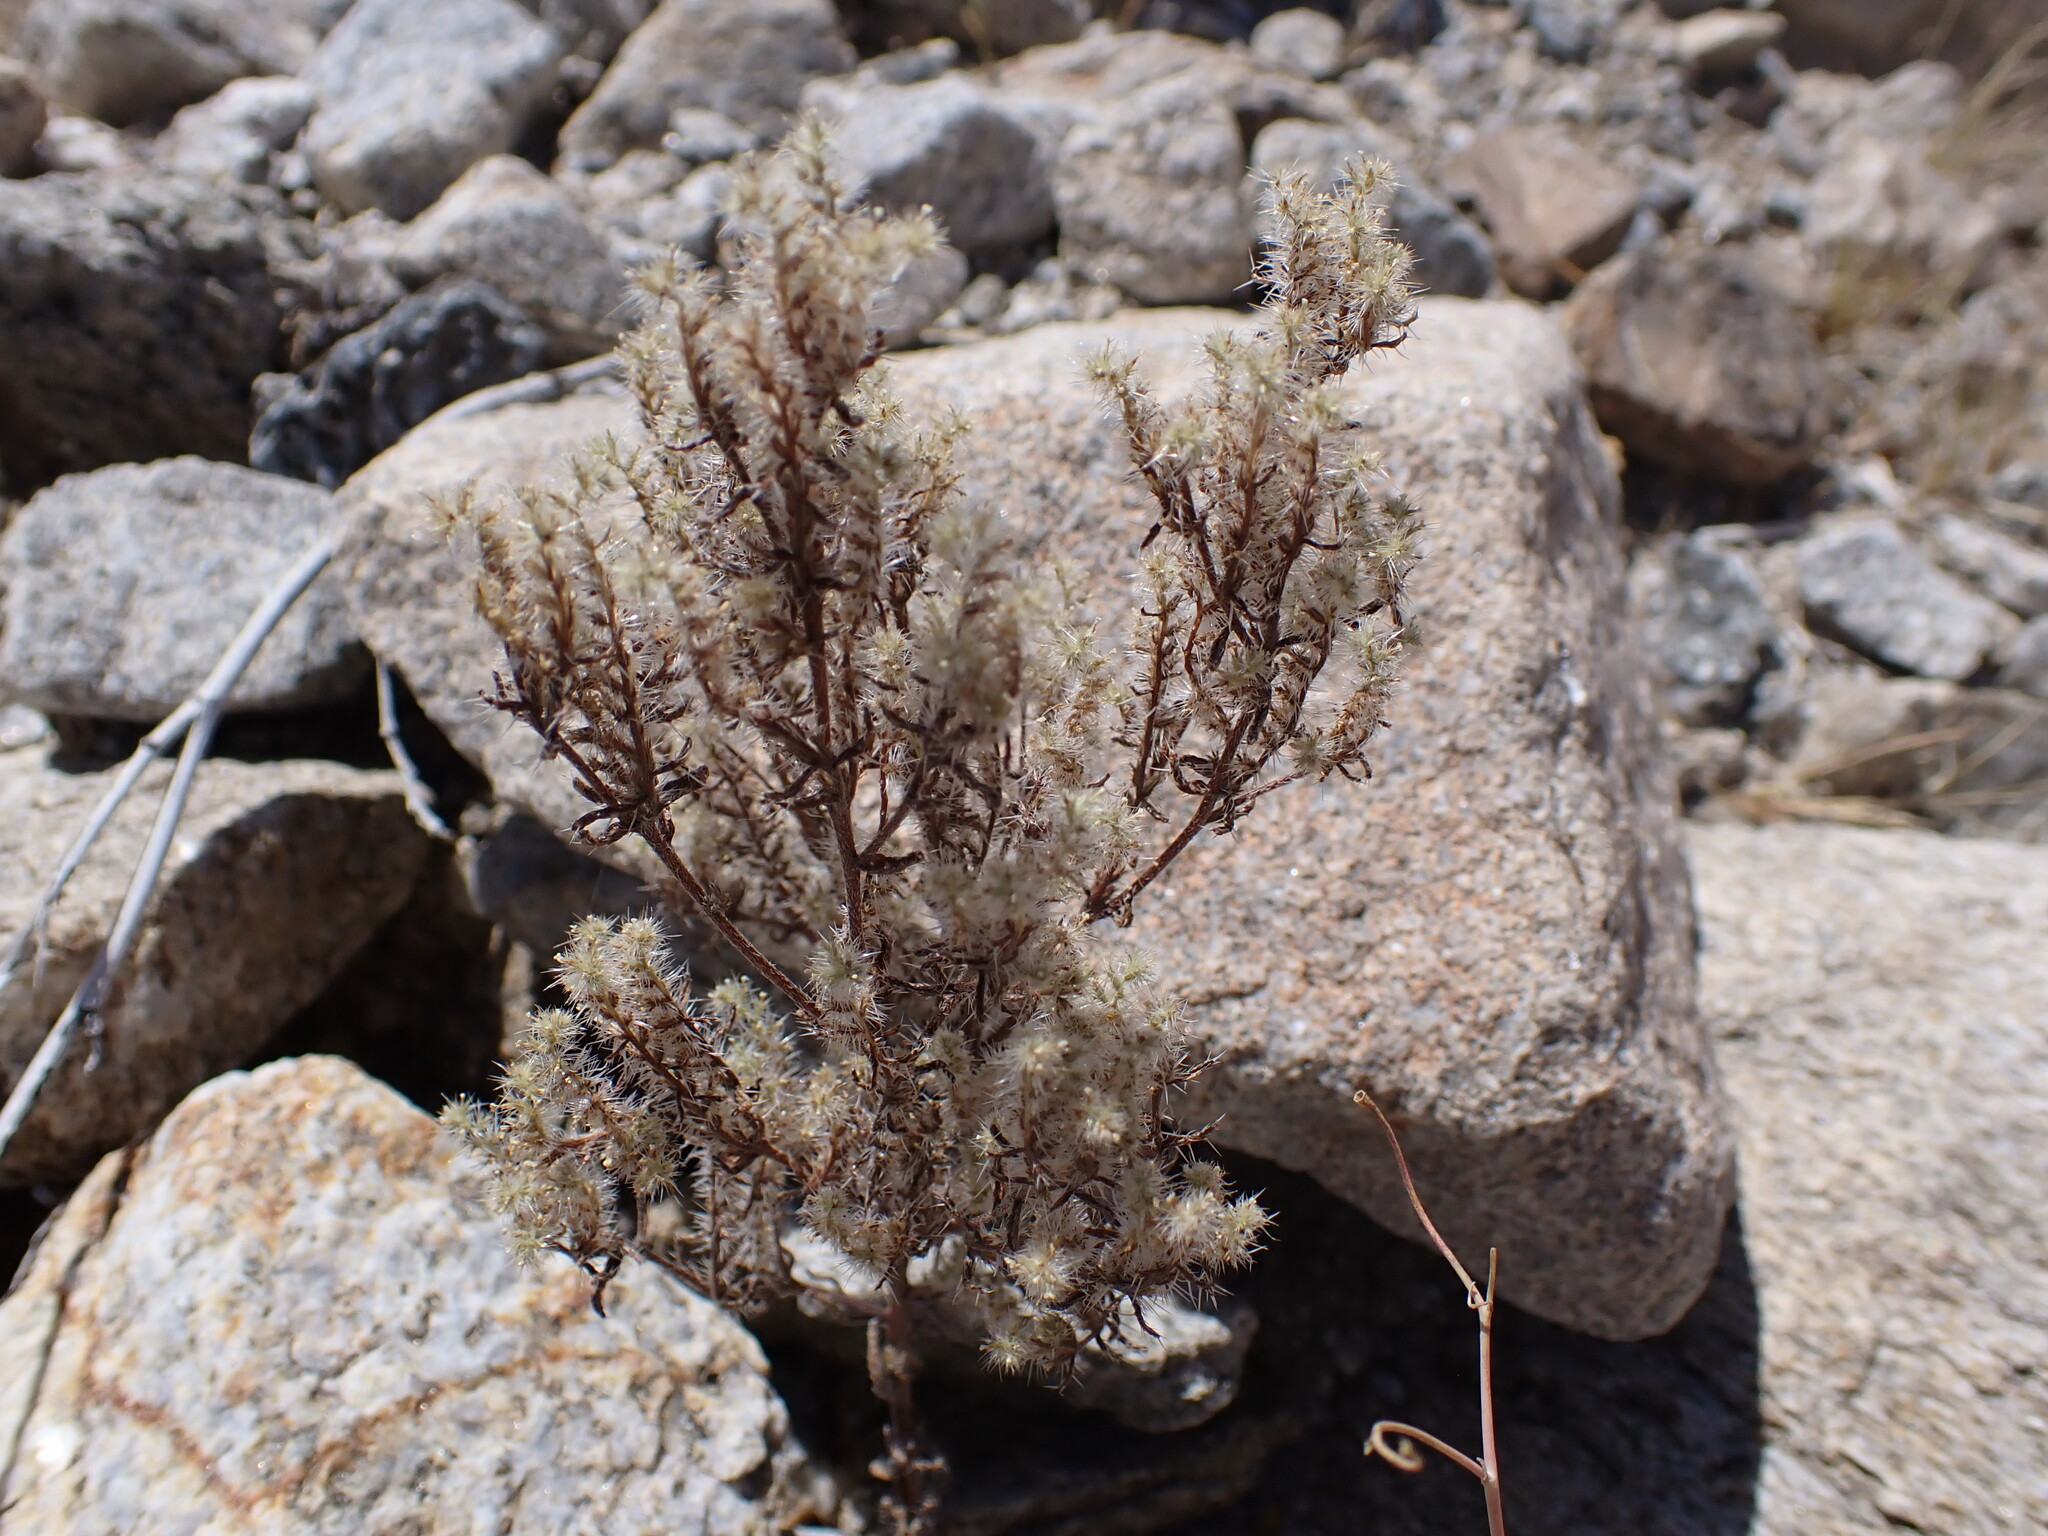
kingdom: Plantae
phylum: Tracheophyta
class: Magnoliopsida
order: Boraginales
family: Boraginaceae
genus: Cryptantha
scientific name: Cryptantha maritima
